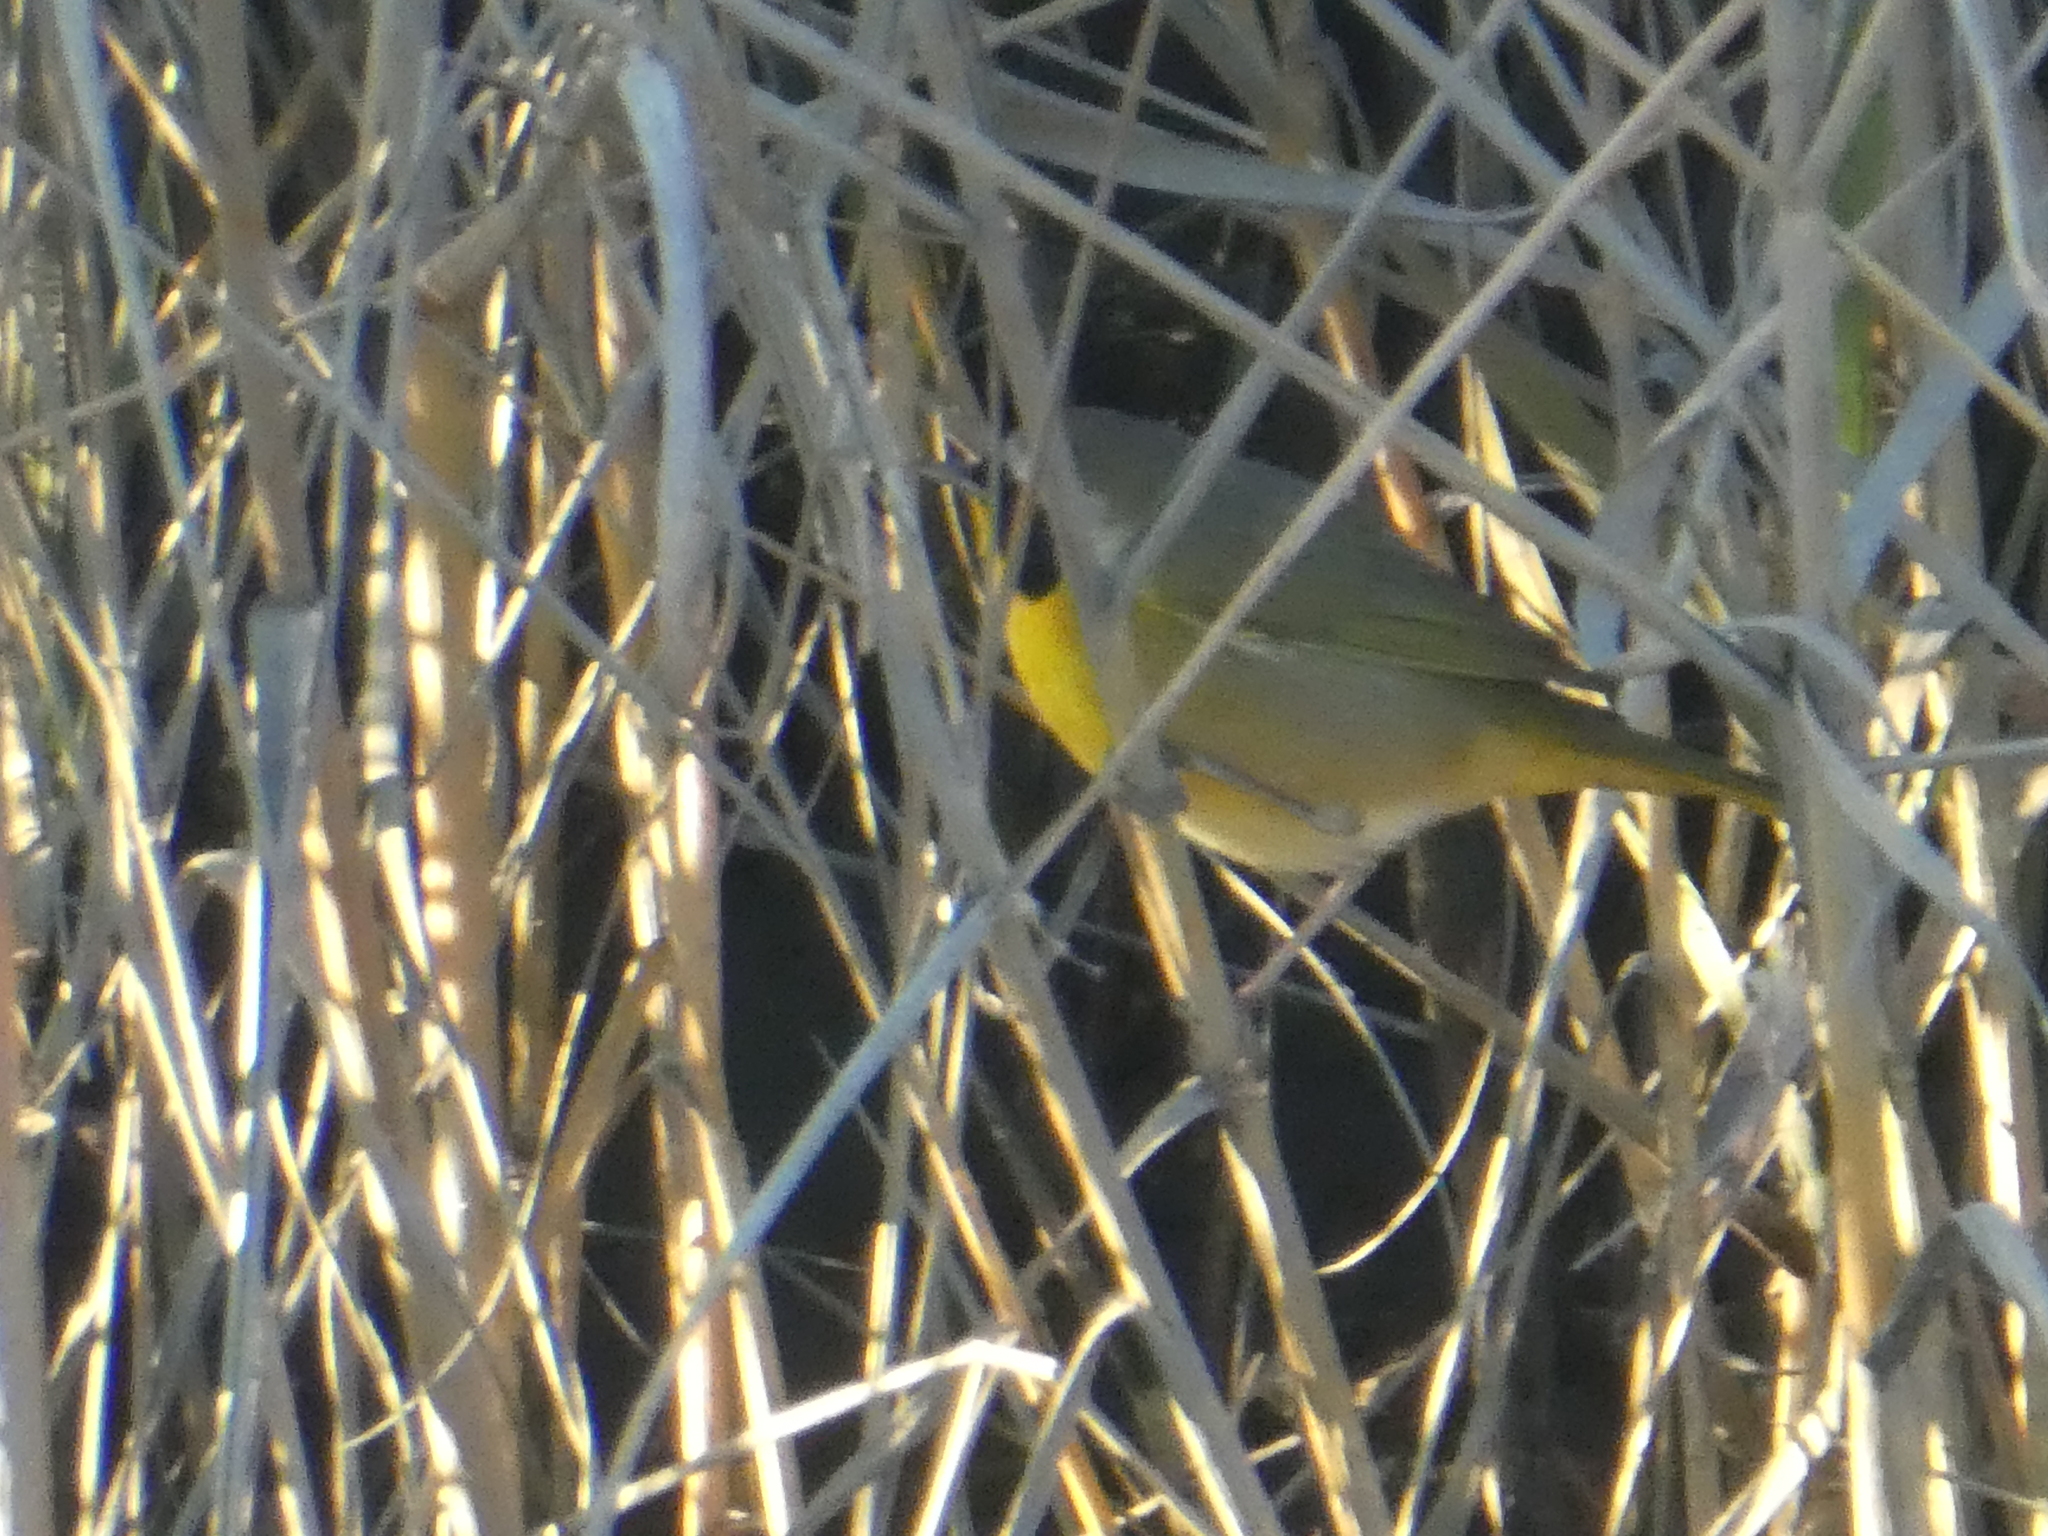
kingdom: Animalia
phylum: Chordata
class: Aves
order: Passeriformes
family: Parulidae
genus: Geothlypis
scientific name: Geothlypis trichas
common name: Common yellowthroat
